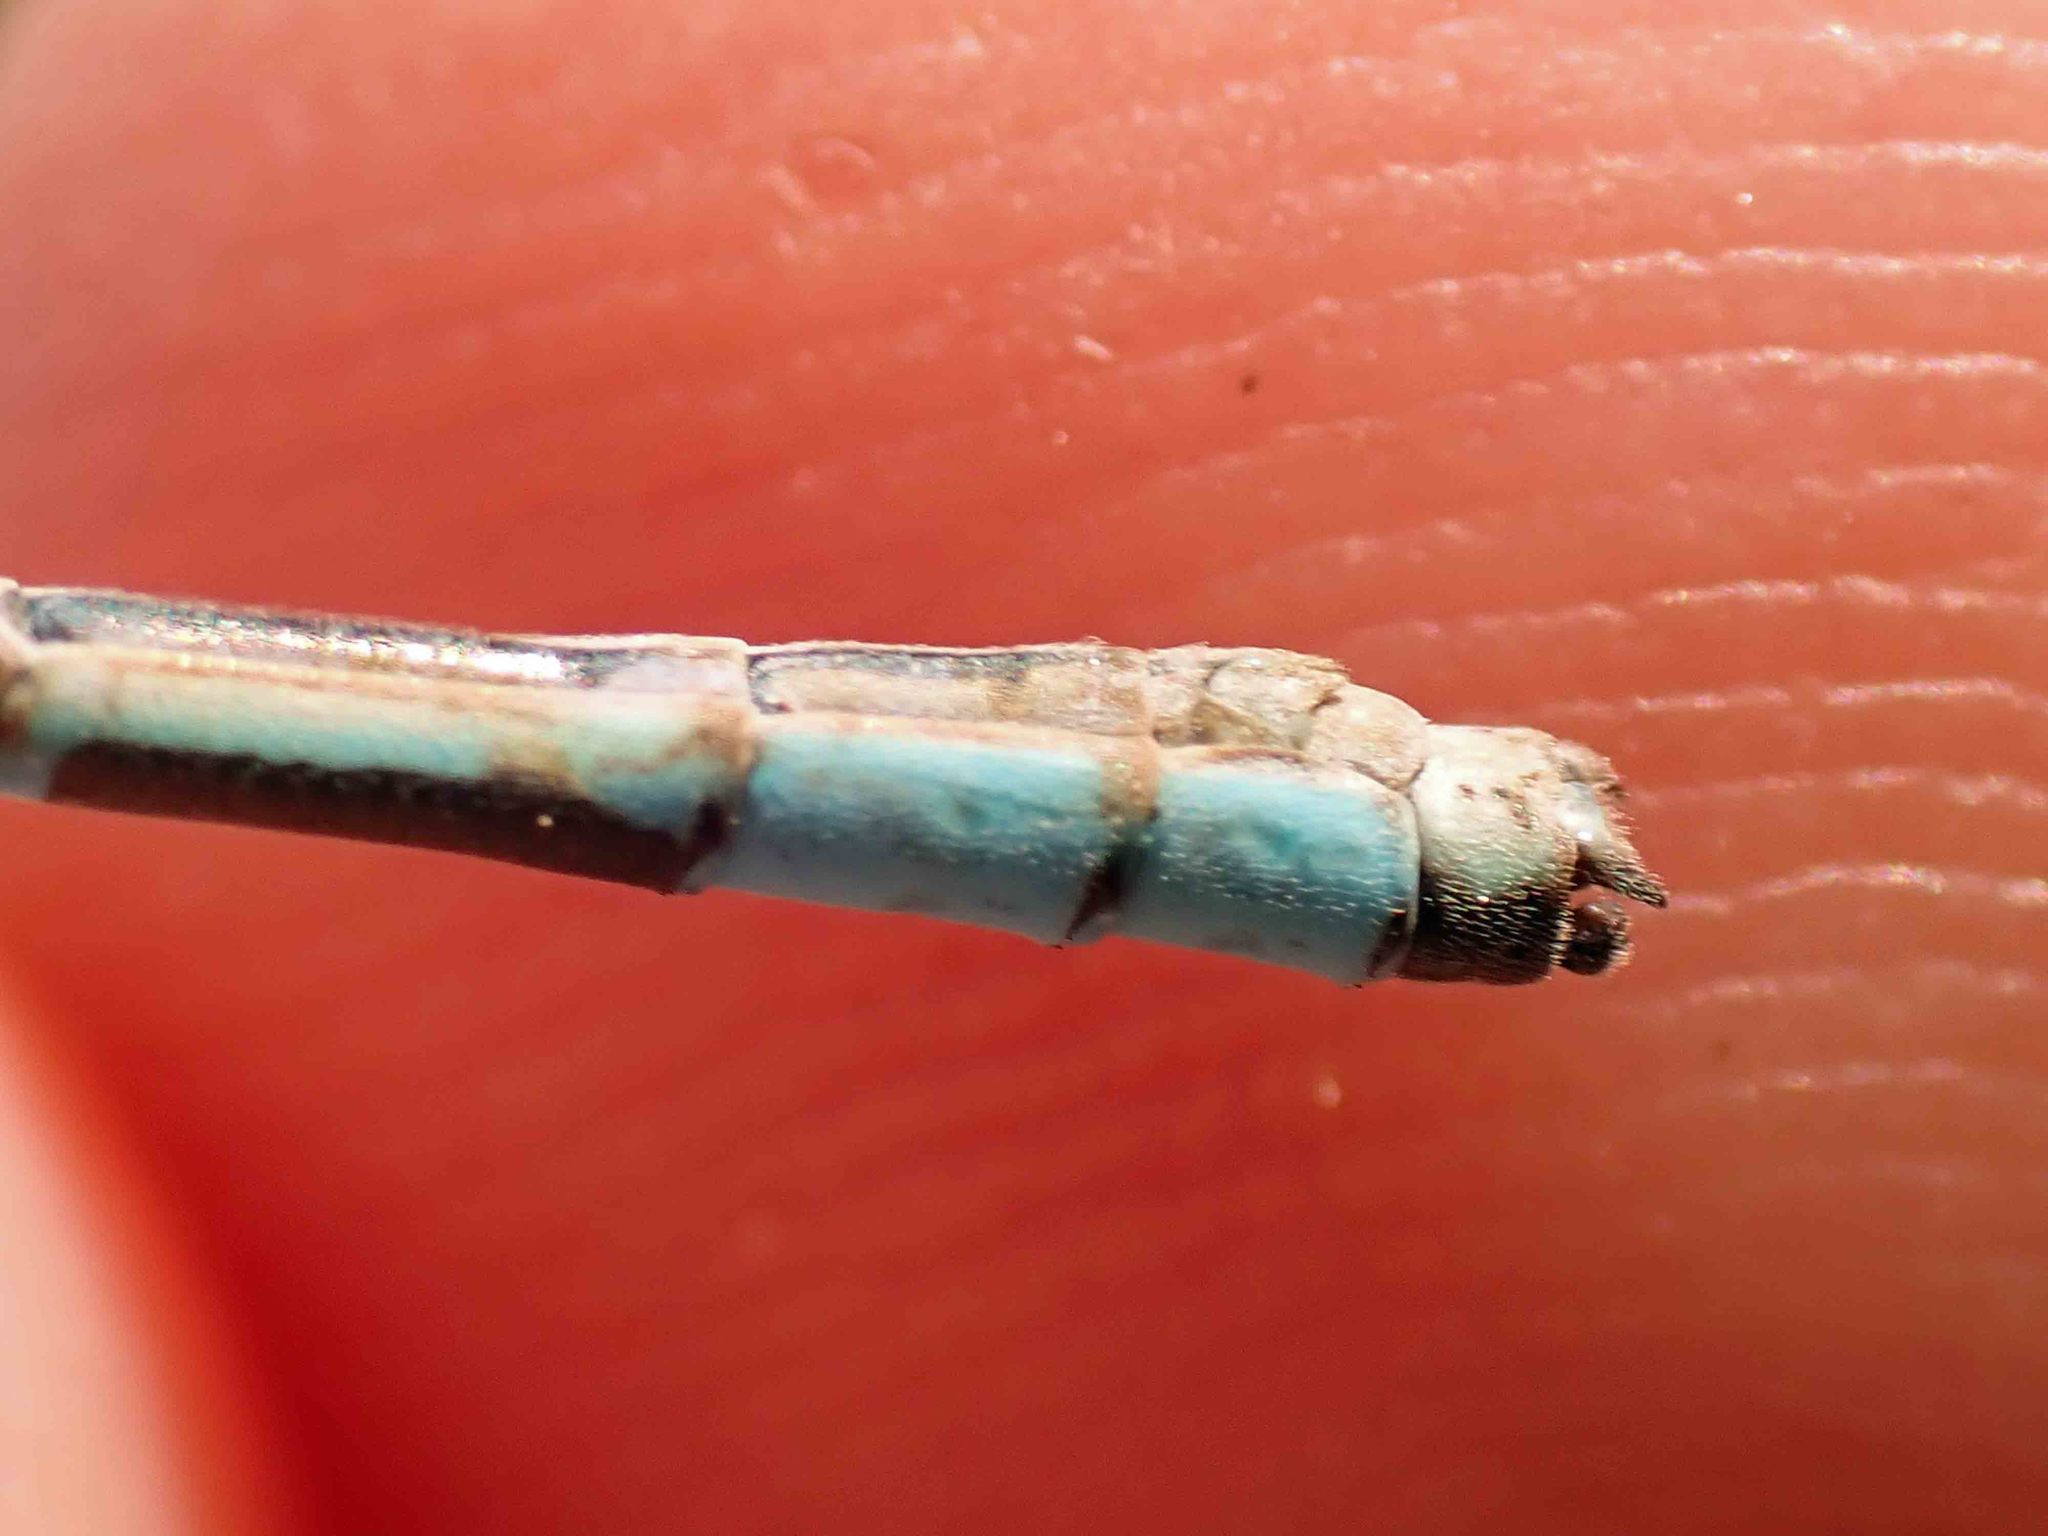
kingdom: Animalia
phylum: Arthropoda
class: Insecta
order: Odonata
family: Coenagrionidae
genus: Enallagma
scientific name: Enallagma boreale
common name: Boreal bluet
